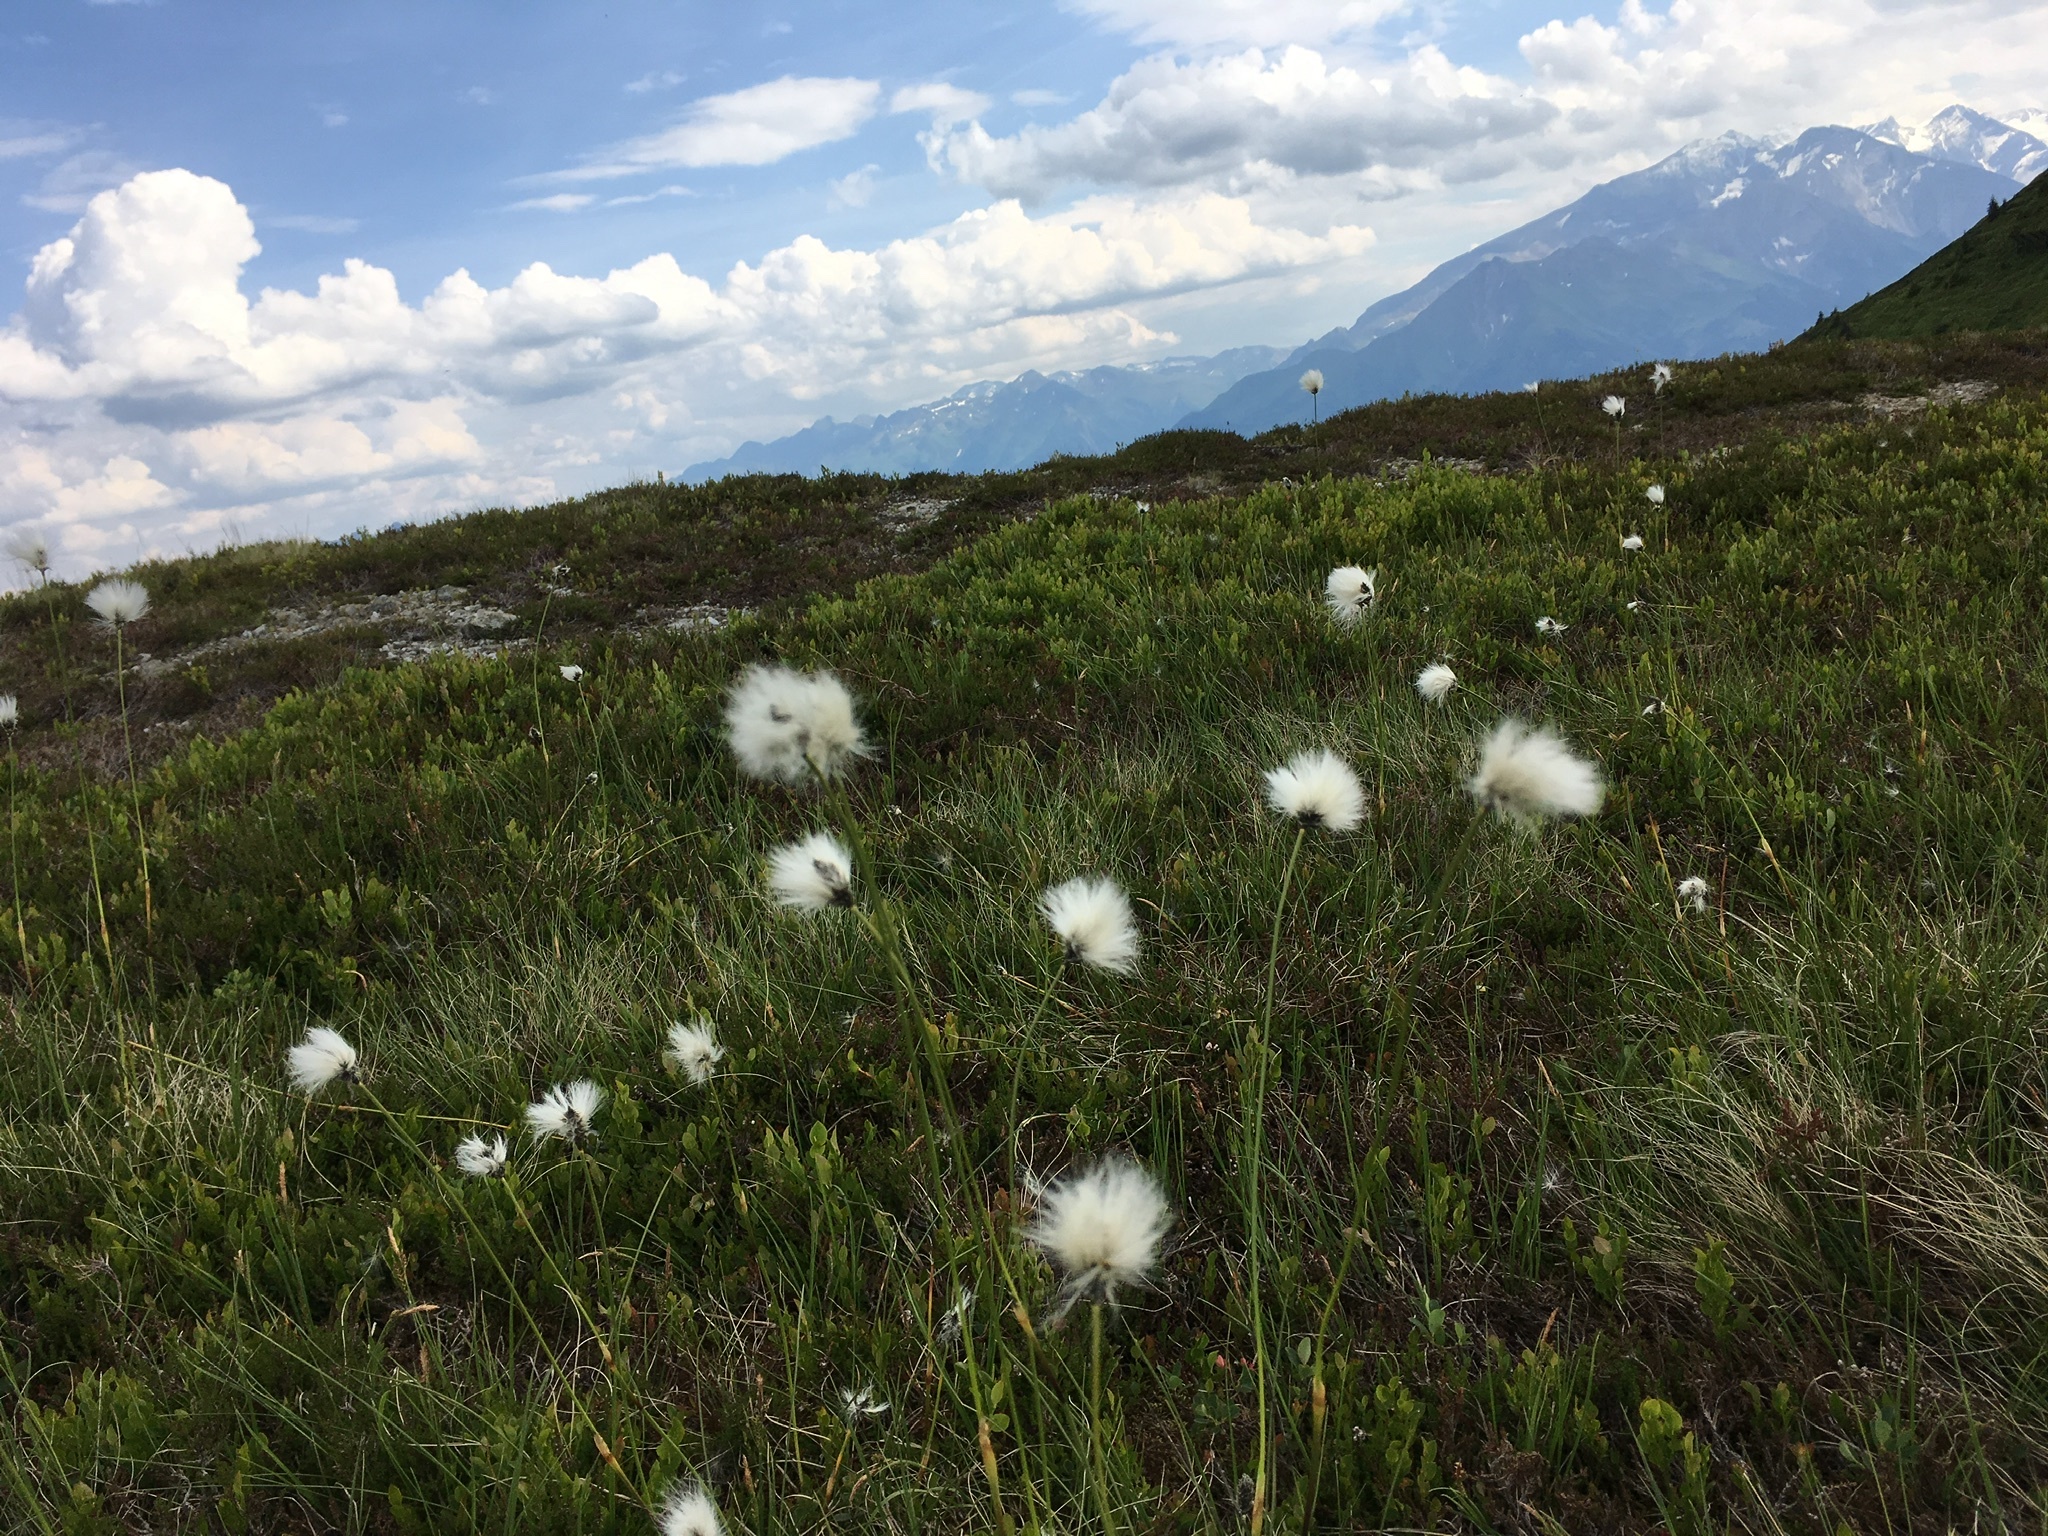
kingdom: Plantae
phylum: Tracheophyta
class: Liliopsida
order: Poales
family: Cyperaceae
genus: Eriophorum
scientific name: Eriophorum vaginatum
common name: Hare's-tail cottongrass
